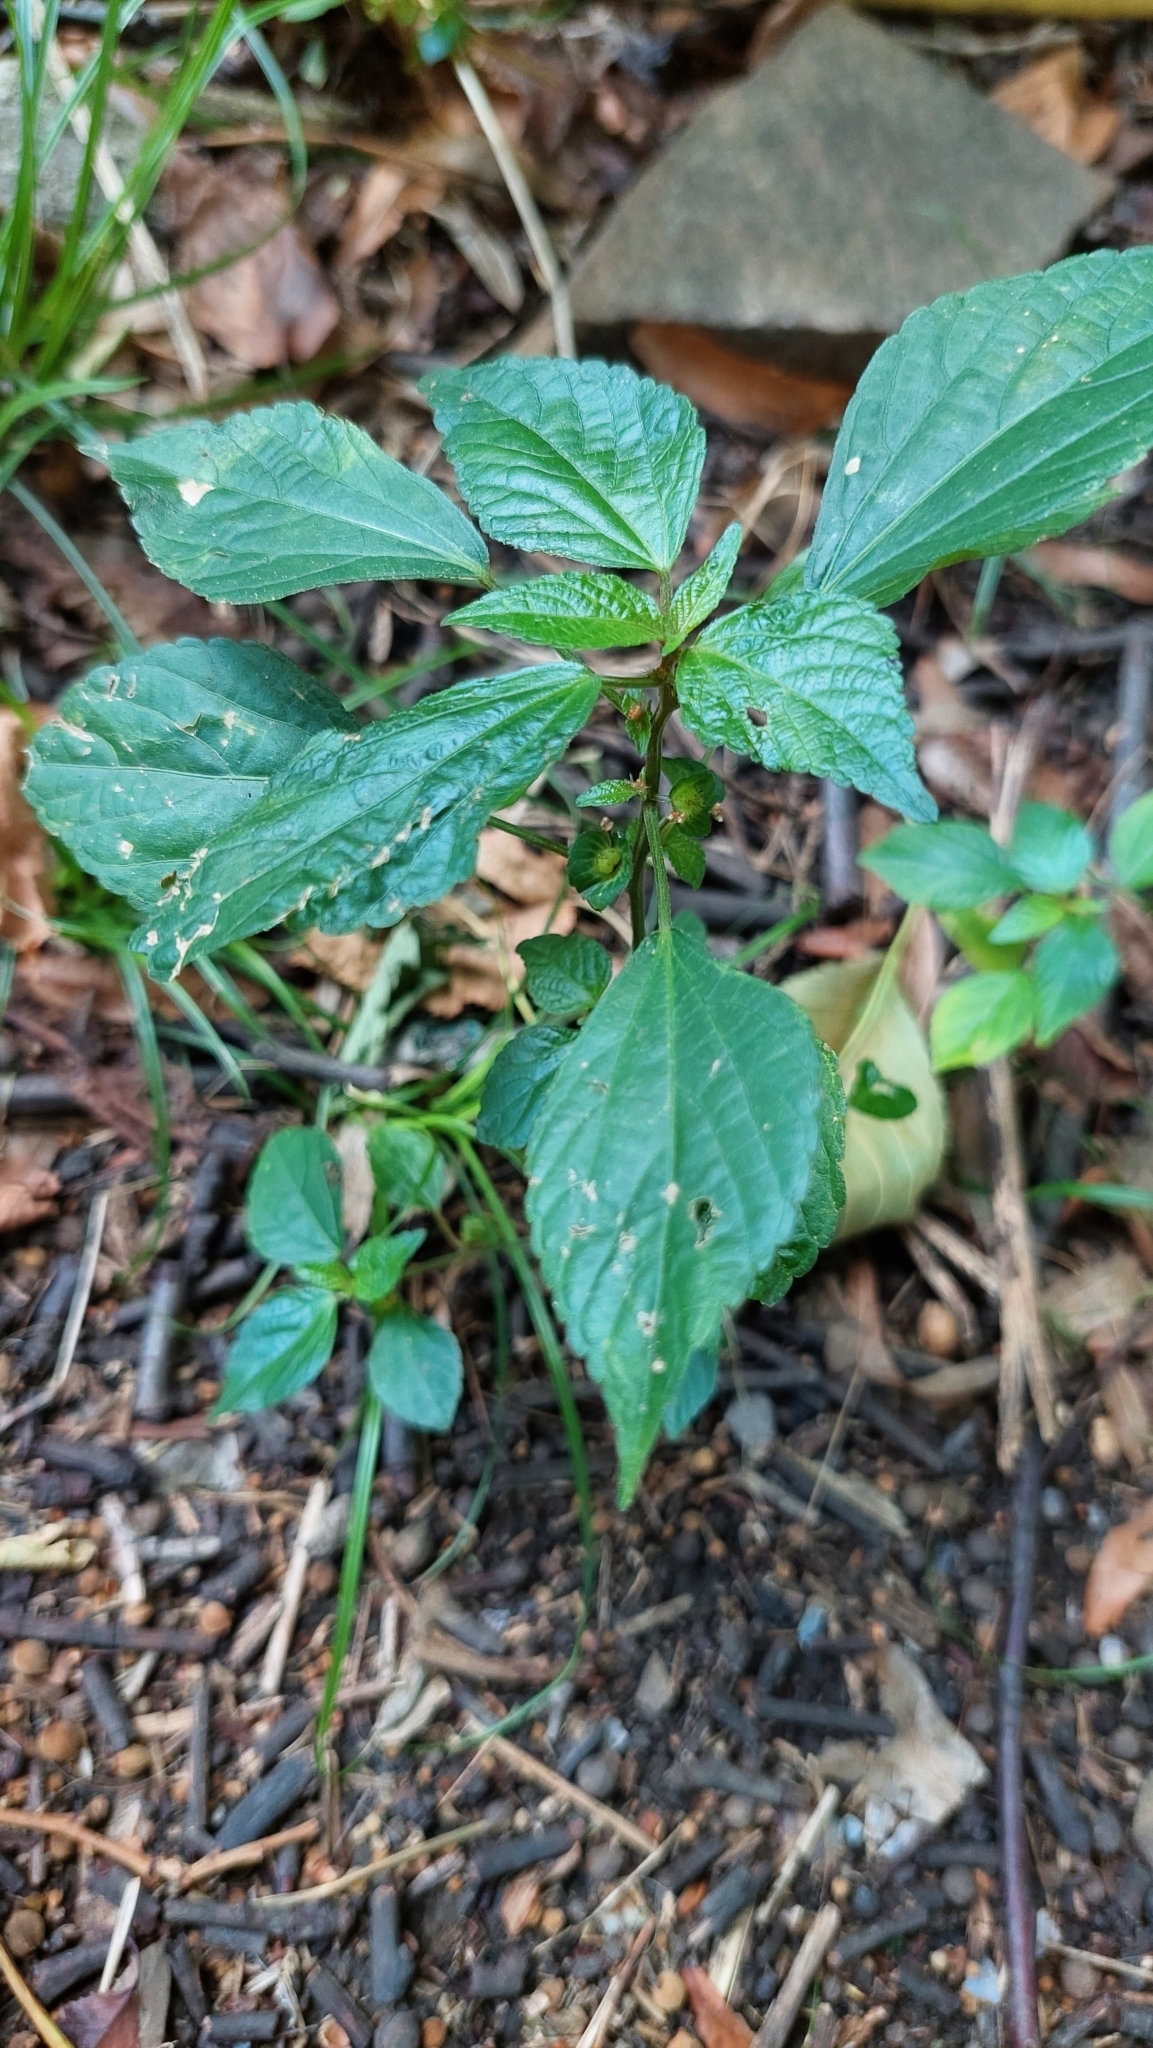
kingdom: Plantae
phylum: Tracheophyta
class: Magnoliopsida
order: Malpighiales
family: Euphorbiaceae
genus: Acalypha
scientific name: Acalypha australis
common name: Asian copperleaf
